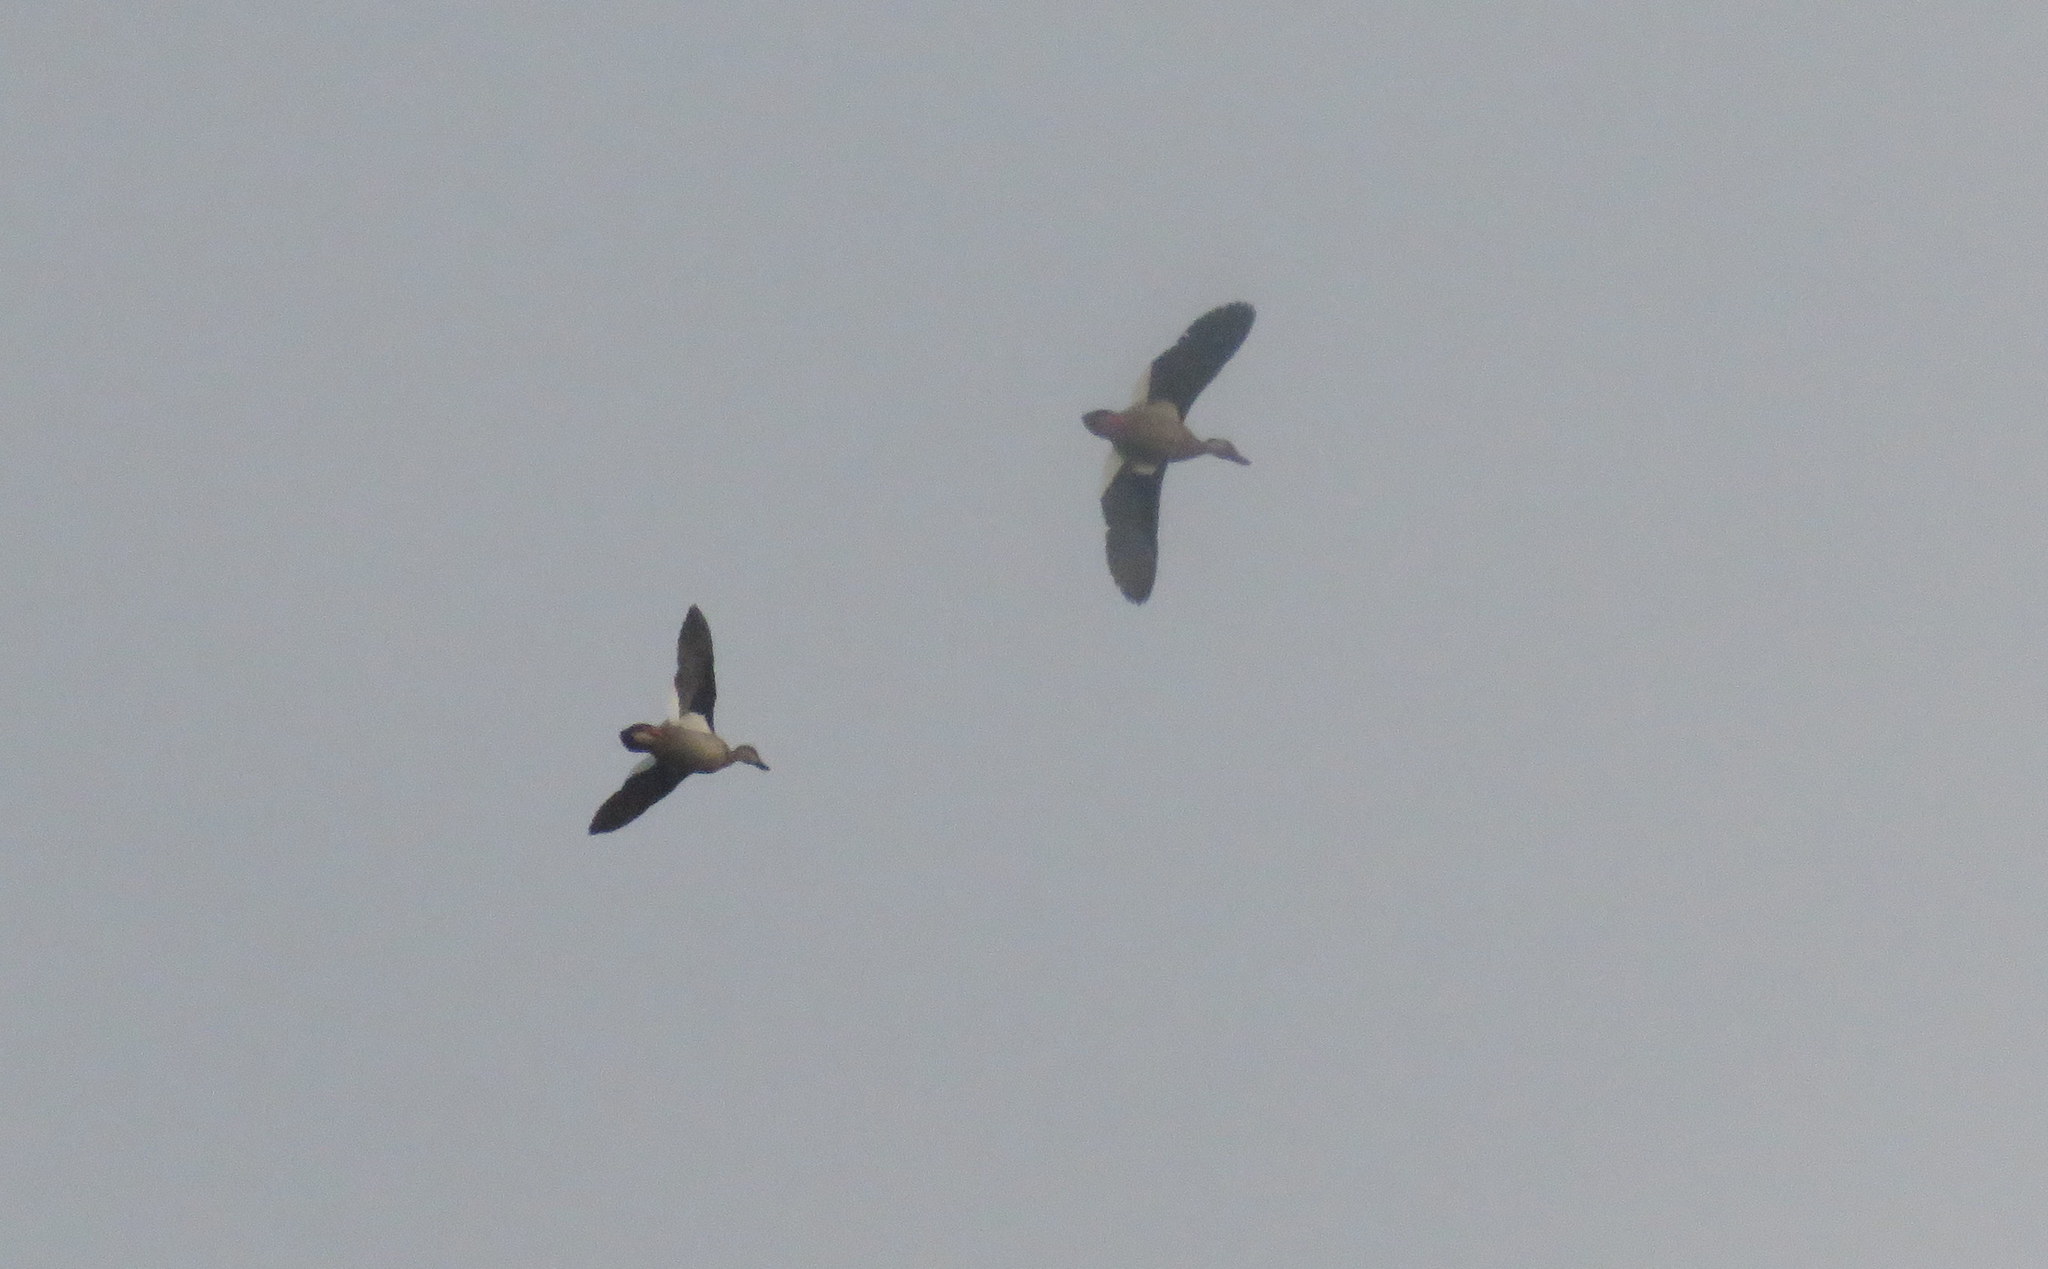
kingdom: Animalia
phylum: Chordata
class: Aves
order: Anseriformes
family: Anatidae
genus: Amazonetta
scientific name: Amazonetta brasiliensis
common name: Brazilian teal
